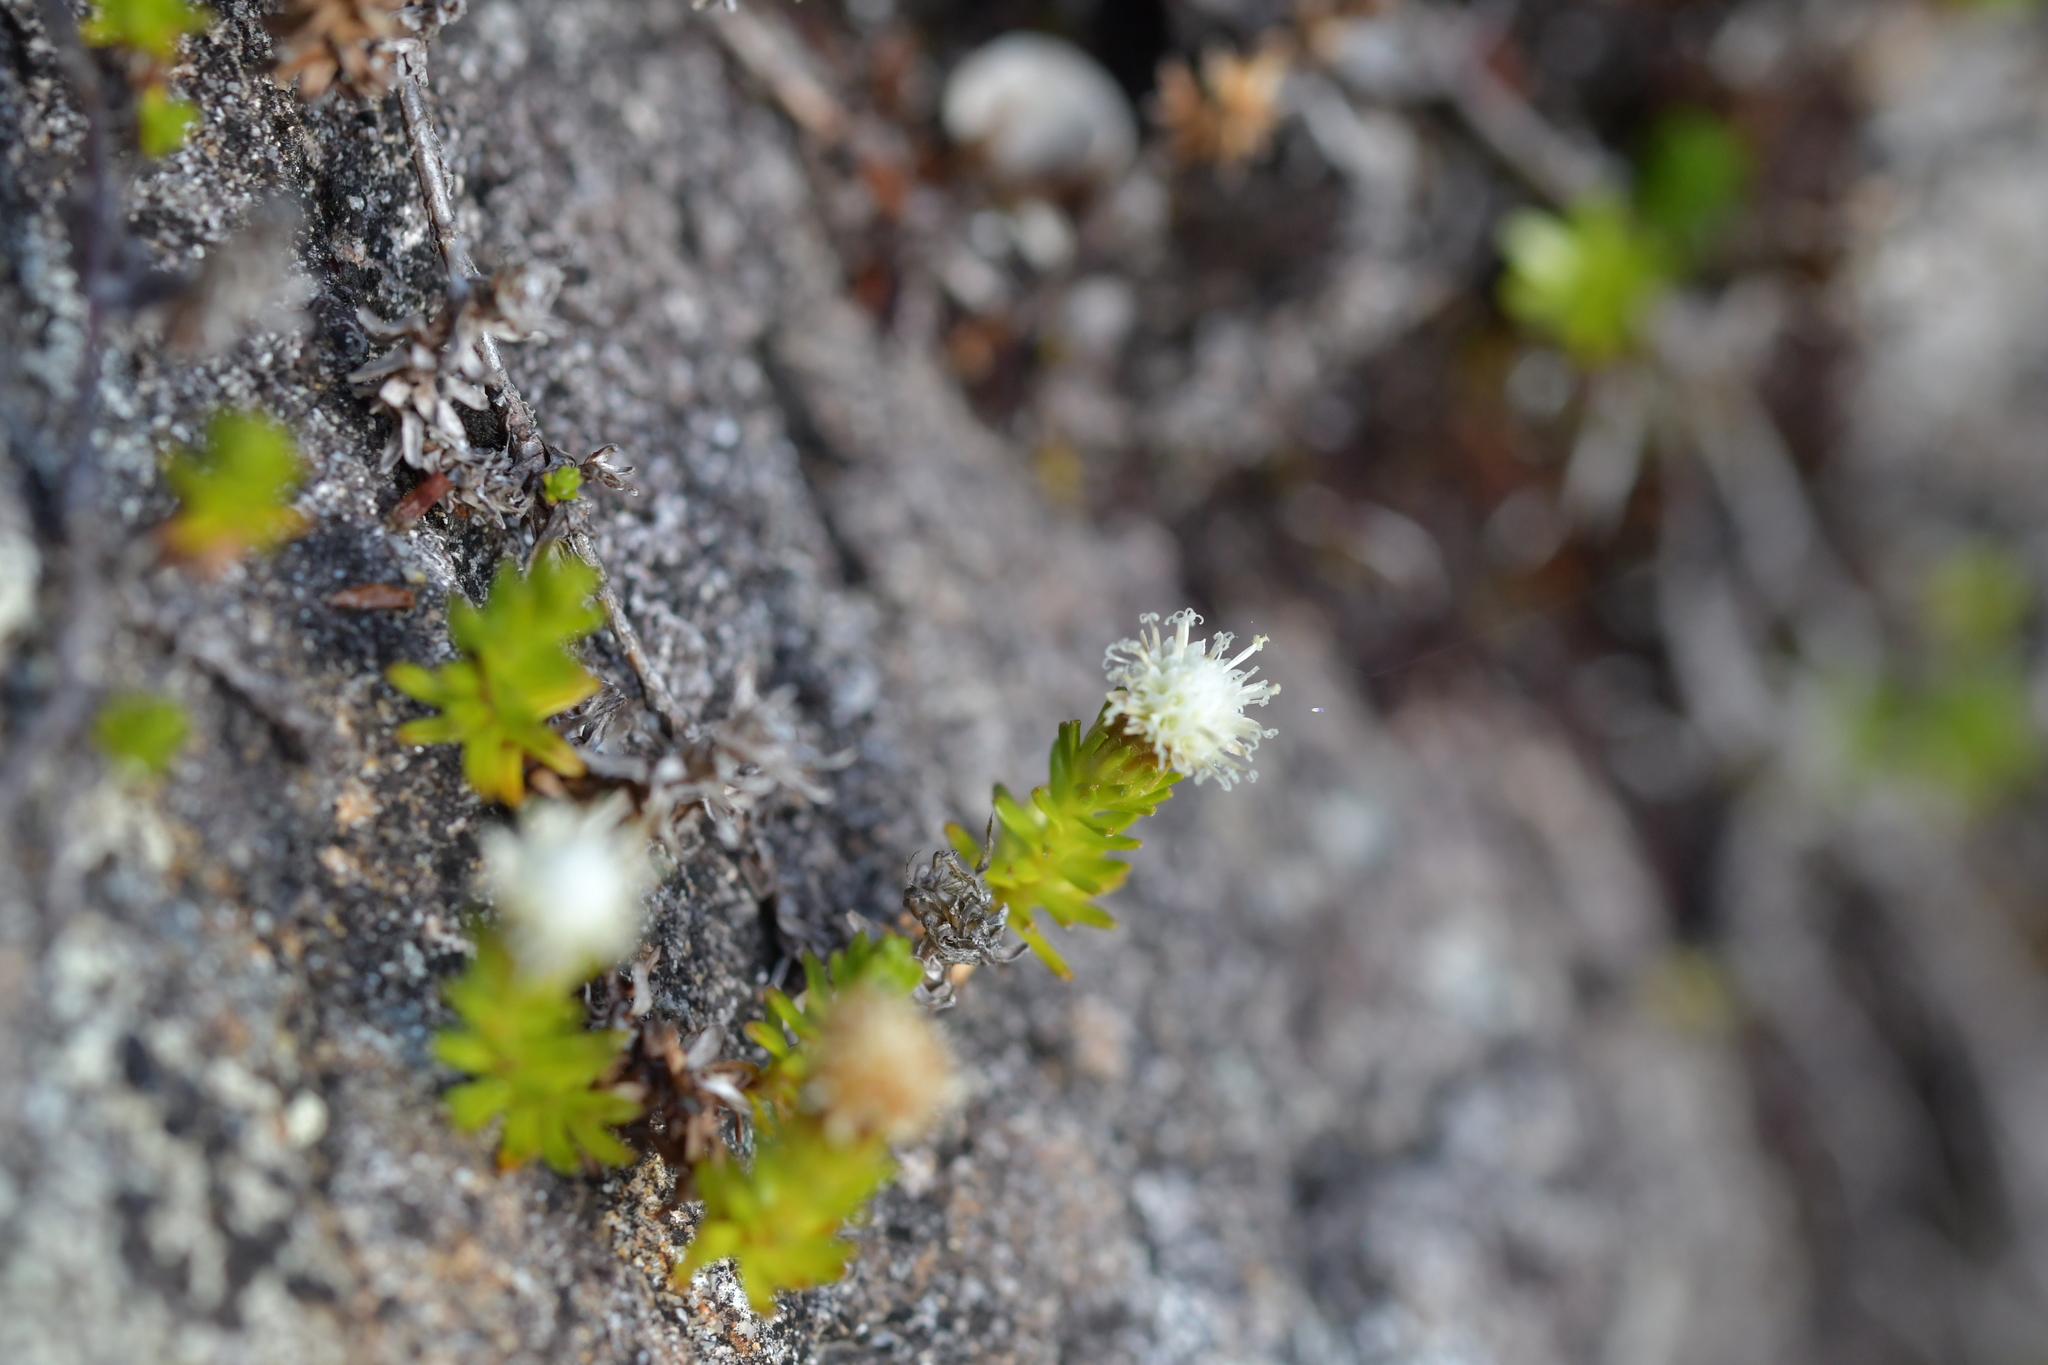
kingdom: Plantae
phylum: Tracheophyta
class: Magnoliopsida
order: Asterales
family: Asteraceae
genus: Raoulia
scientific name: Raoulia glabra
